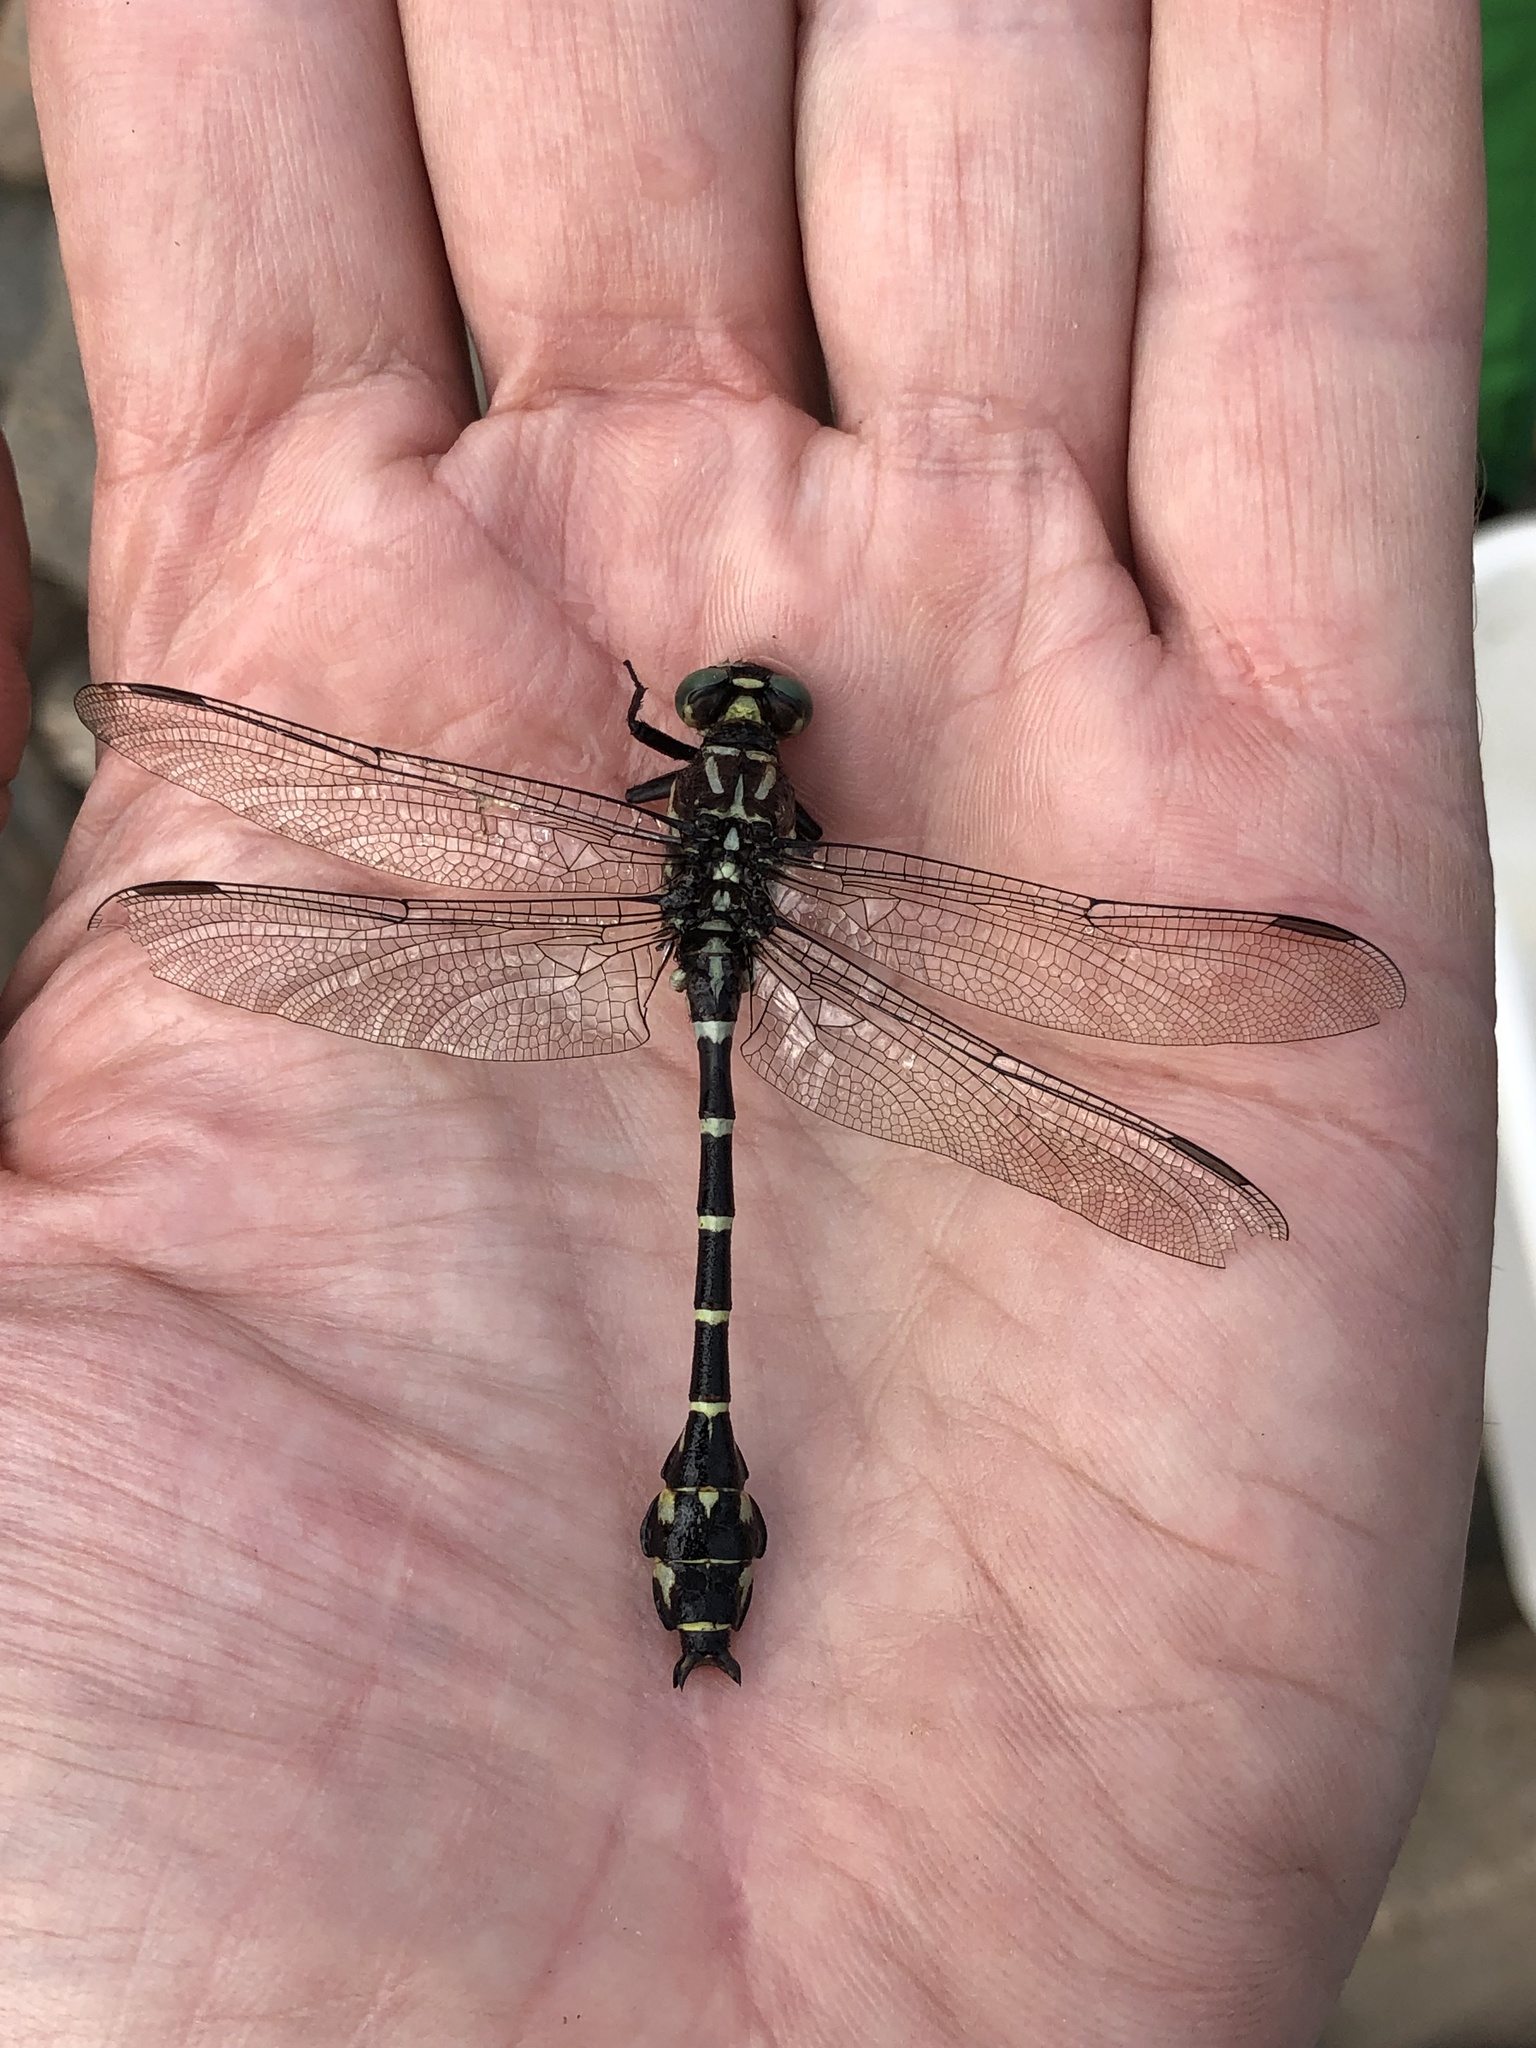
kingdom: Animalia
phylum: Arthropoda
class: Insecta
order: Odonata
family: Gomphidae
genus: Stylurus
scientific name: Stylurus scudderi
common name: Zebra clubtail
